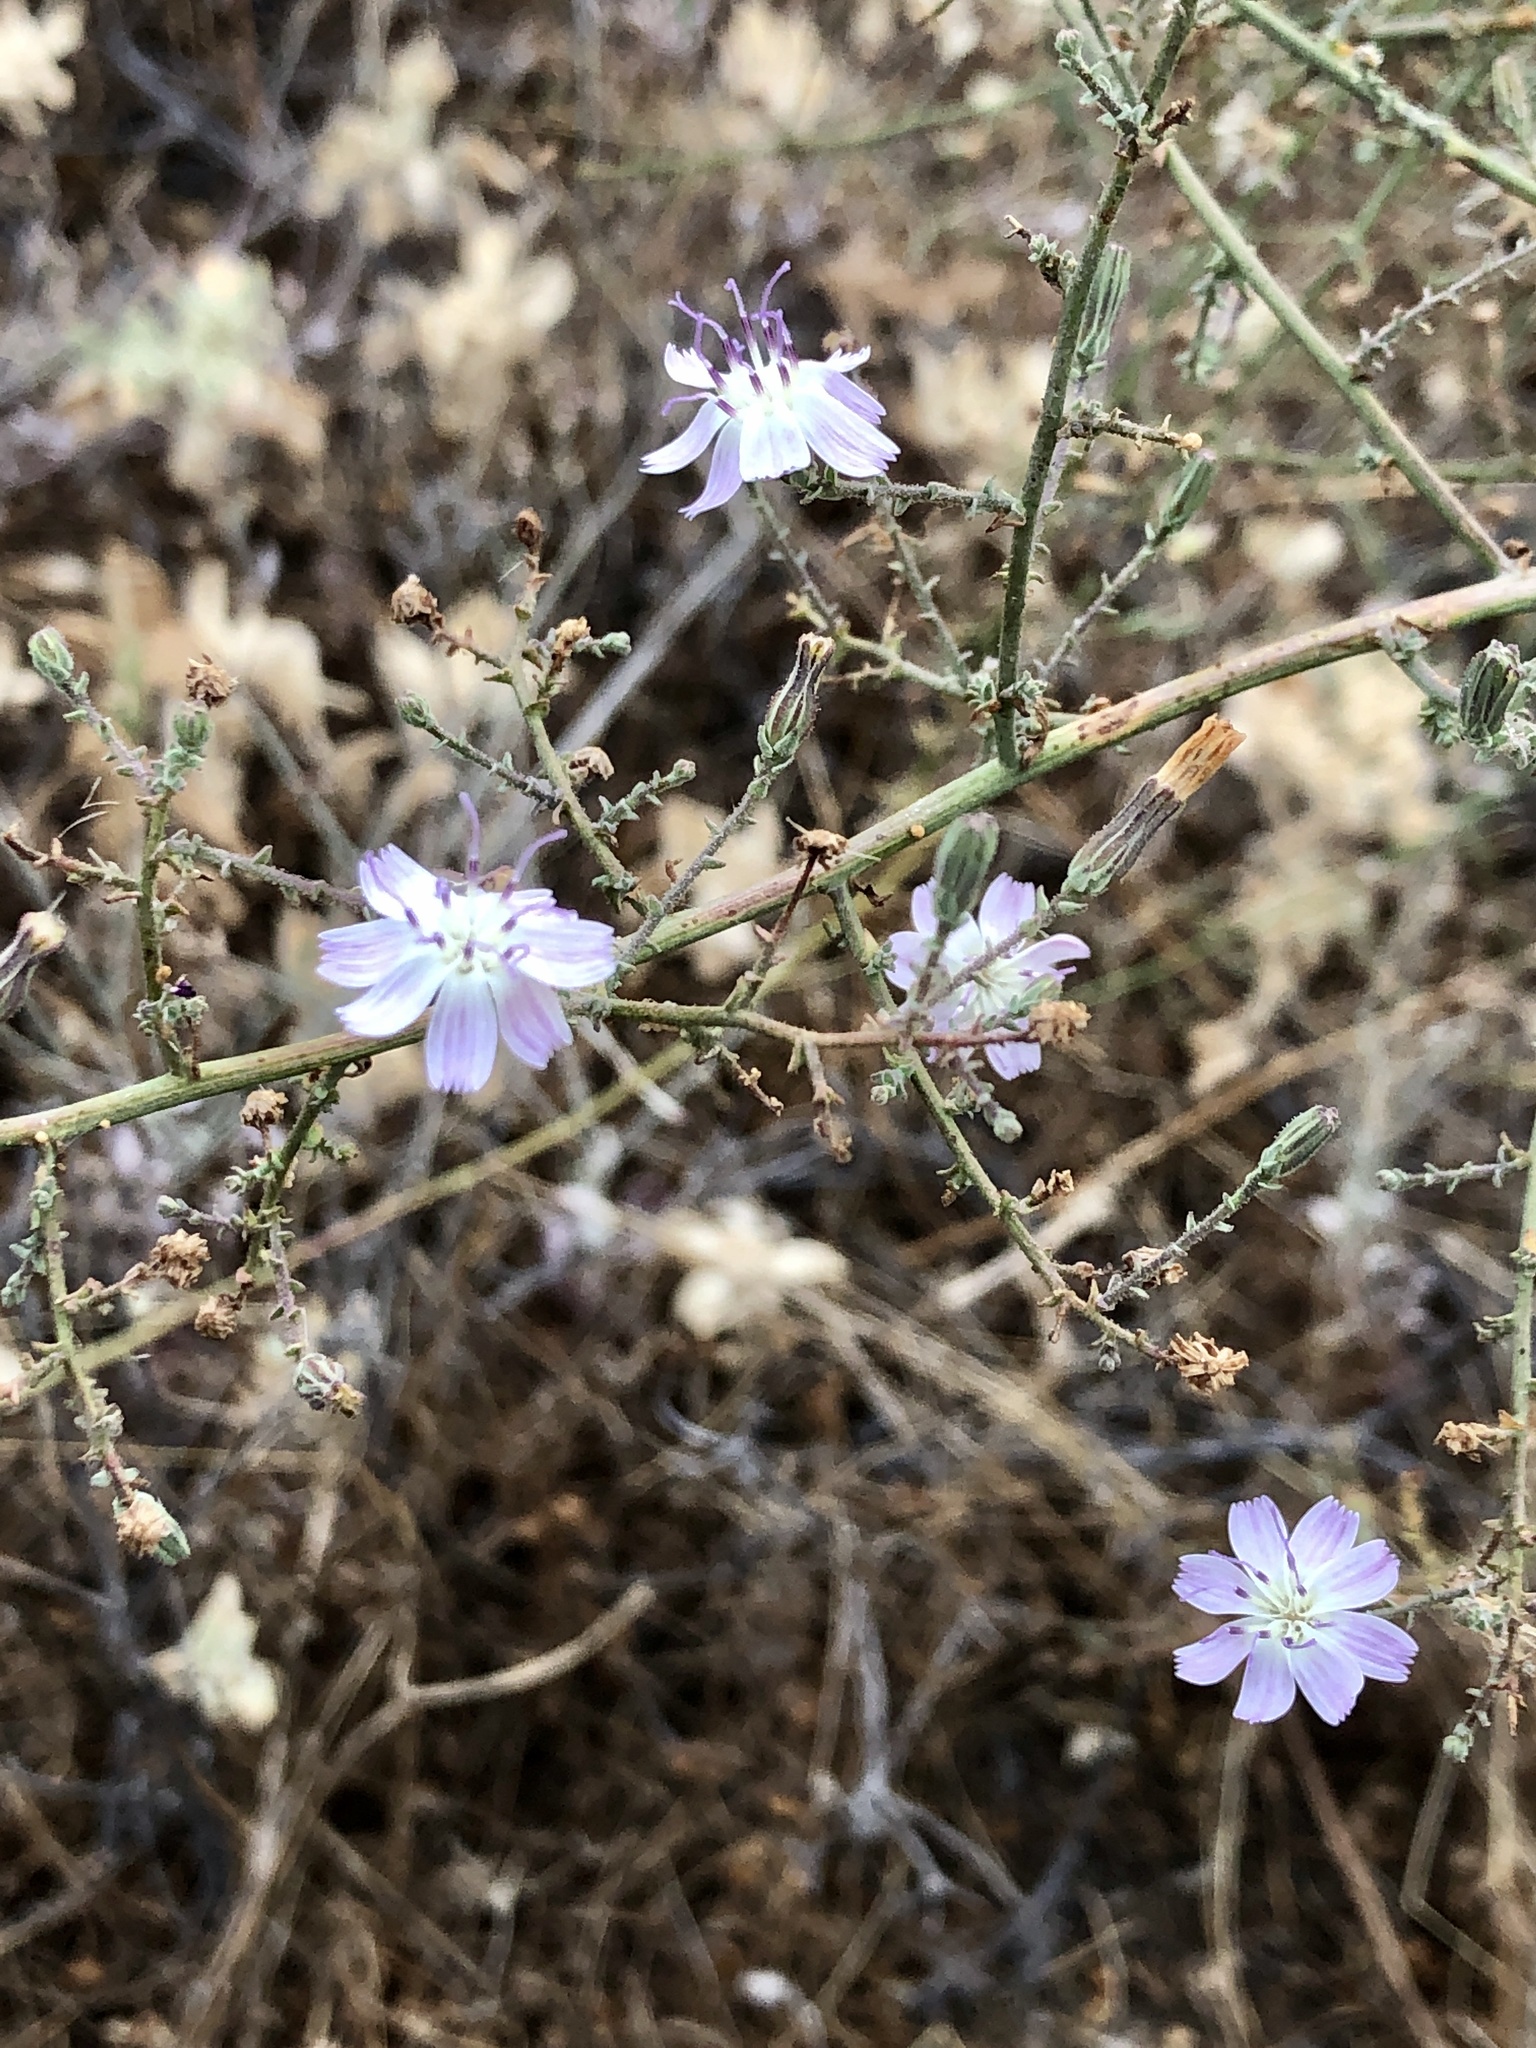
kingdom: Plantae
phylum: Tracheophyta
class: Magnoliopsida
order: Asterales
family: Asteraceae
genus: Stephanomeria
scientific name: Stephanomeria virgata
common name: Virgate wirelettuce
